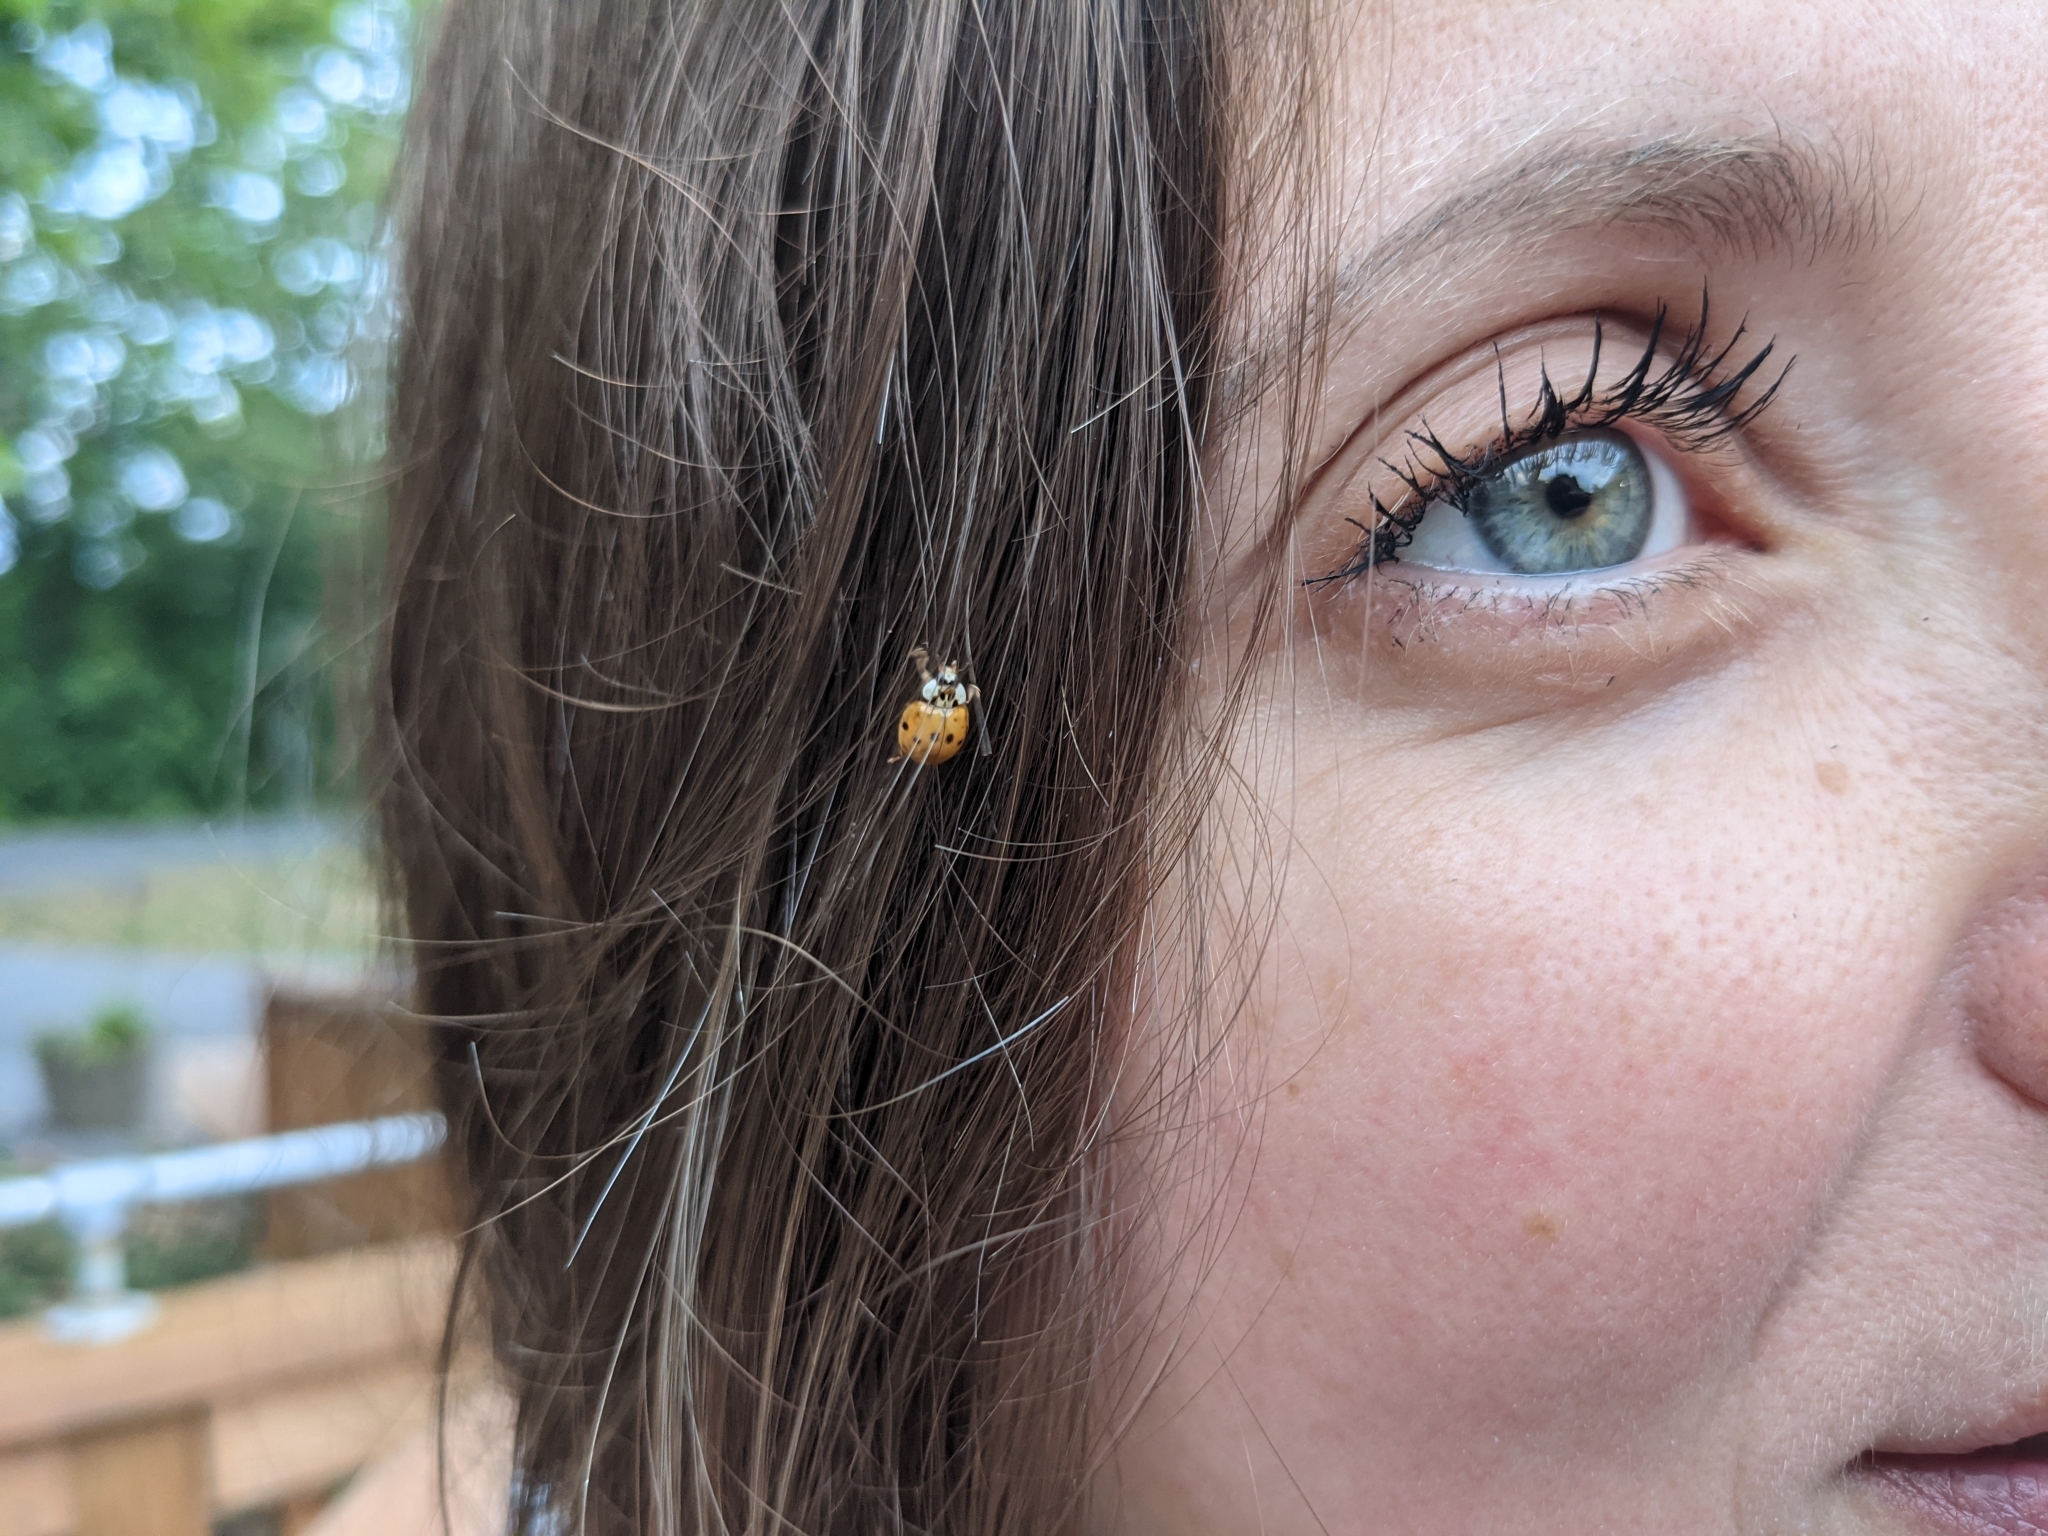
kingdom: Animalia
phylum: Arthropoda
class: Insecta
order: Coleoptera
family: Coccinellidae
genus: Harmonia
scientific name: Harmonia axyridis
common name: Harlequin ladybird
